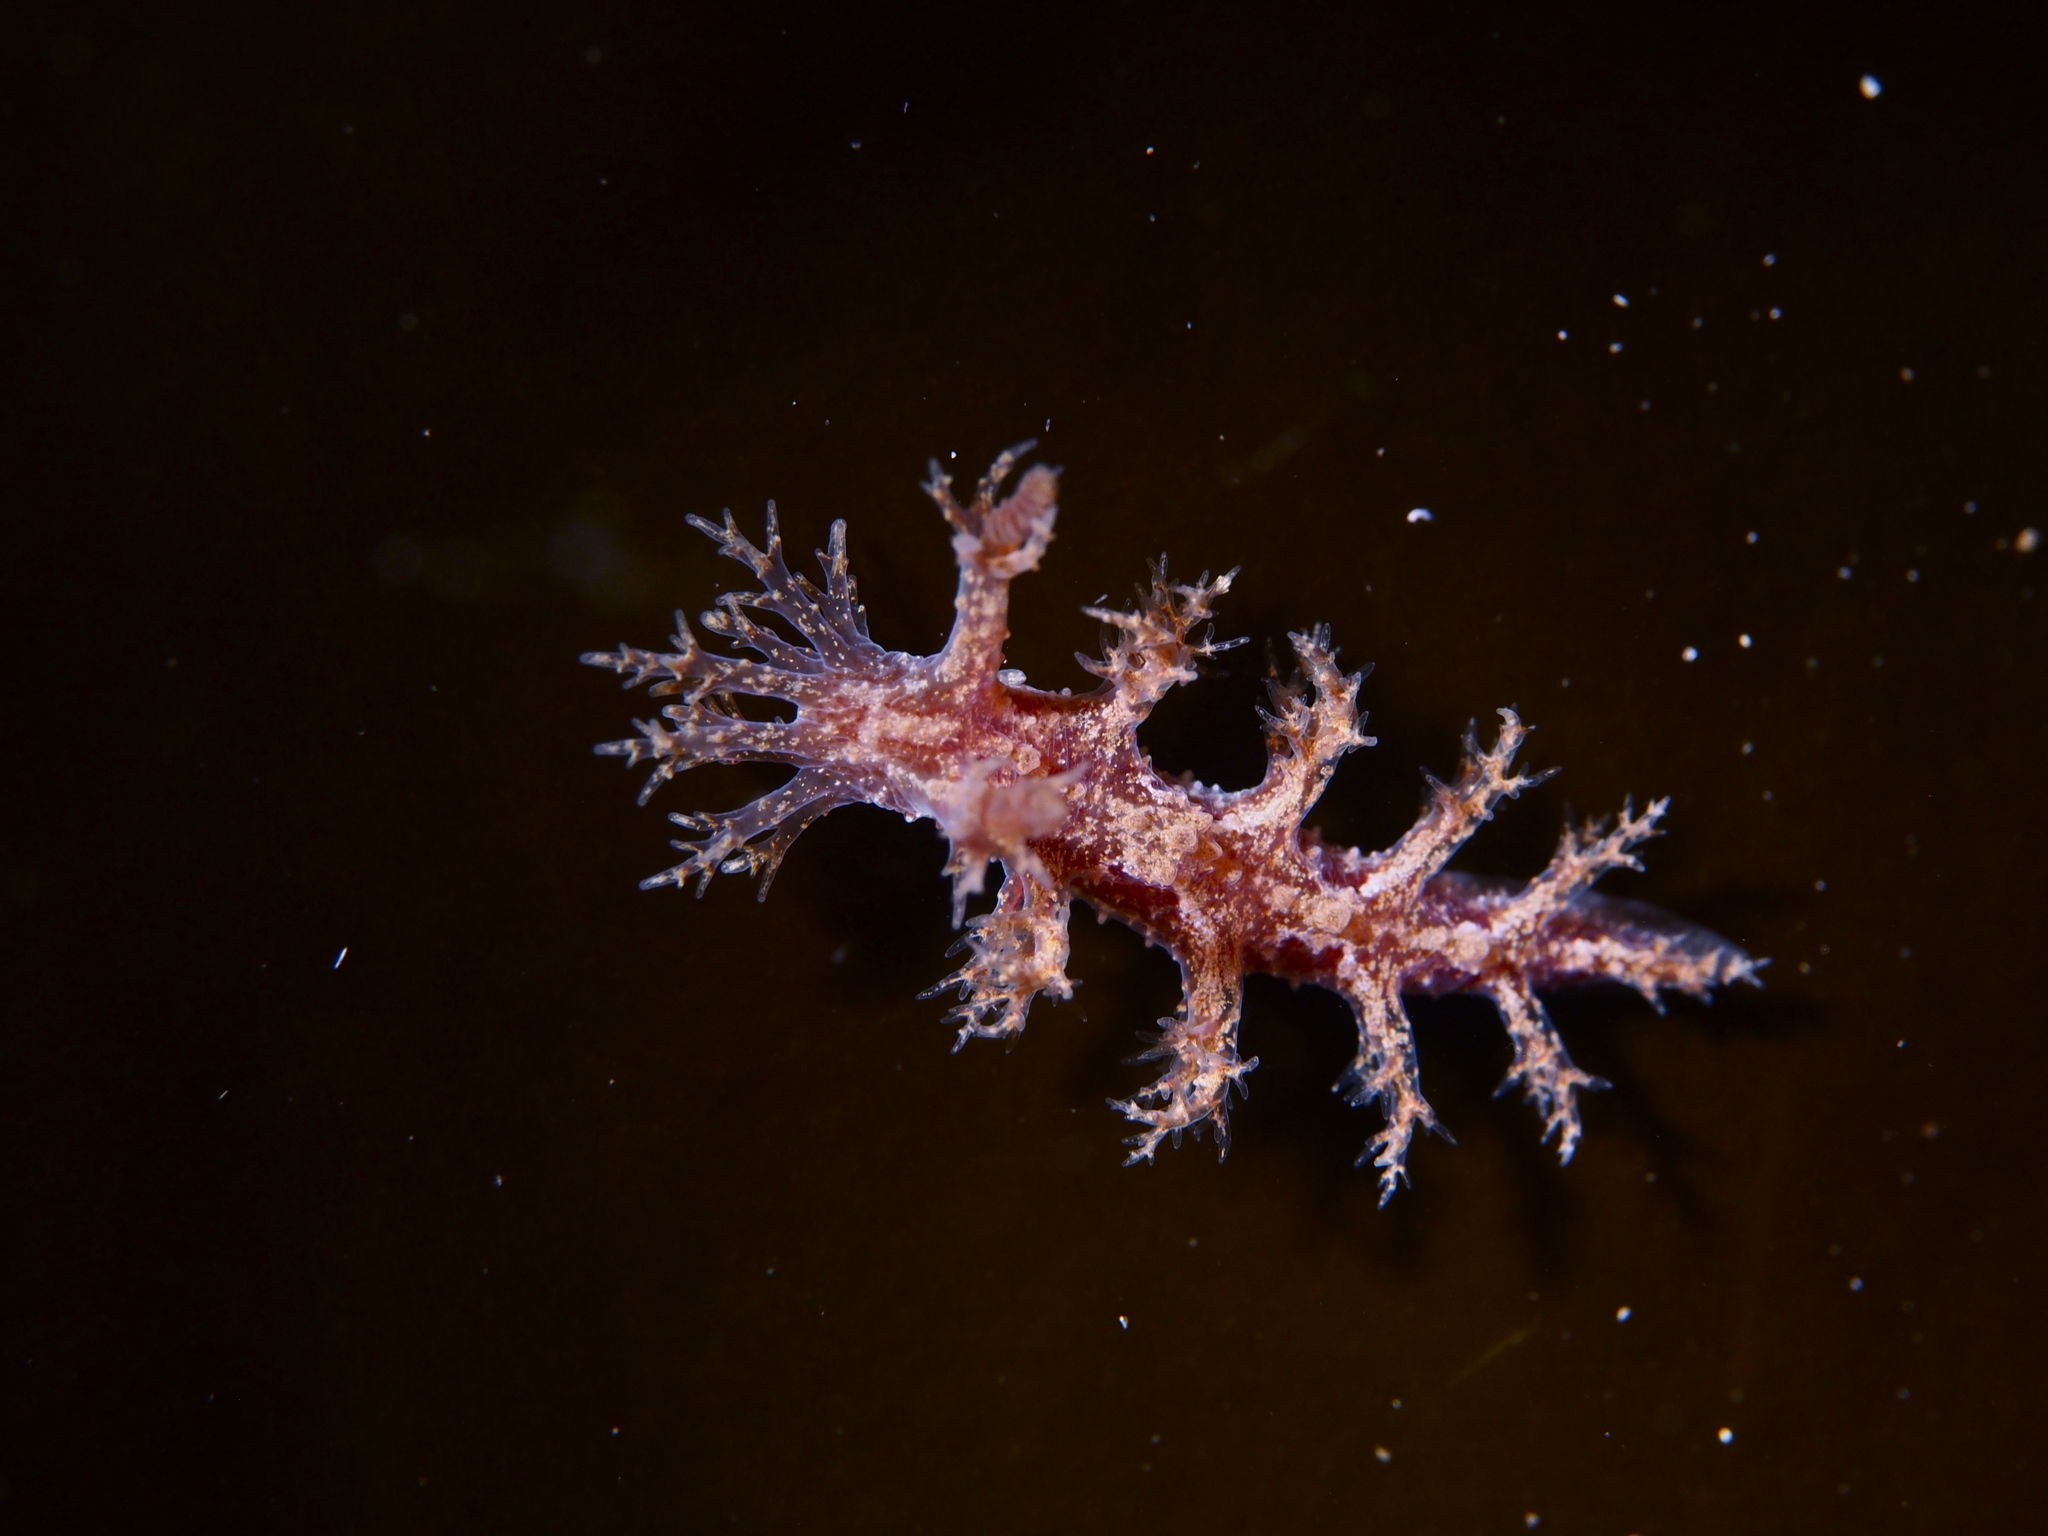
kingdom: Animalia
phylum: Mollusca
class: Gastropoda
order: Nudibranchia
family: Dendronotidae
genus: Dendronotus
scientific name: Dendronotus frondosus
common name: Bushy-backed nudibranch
